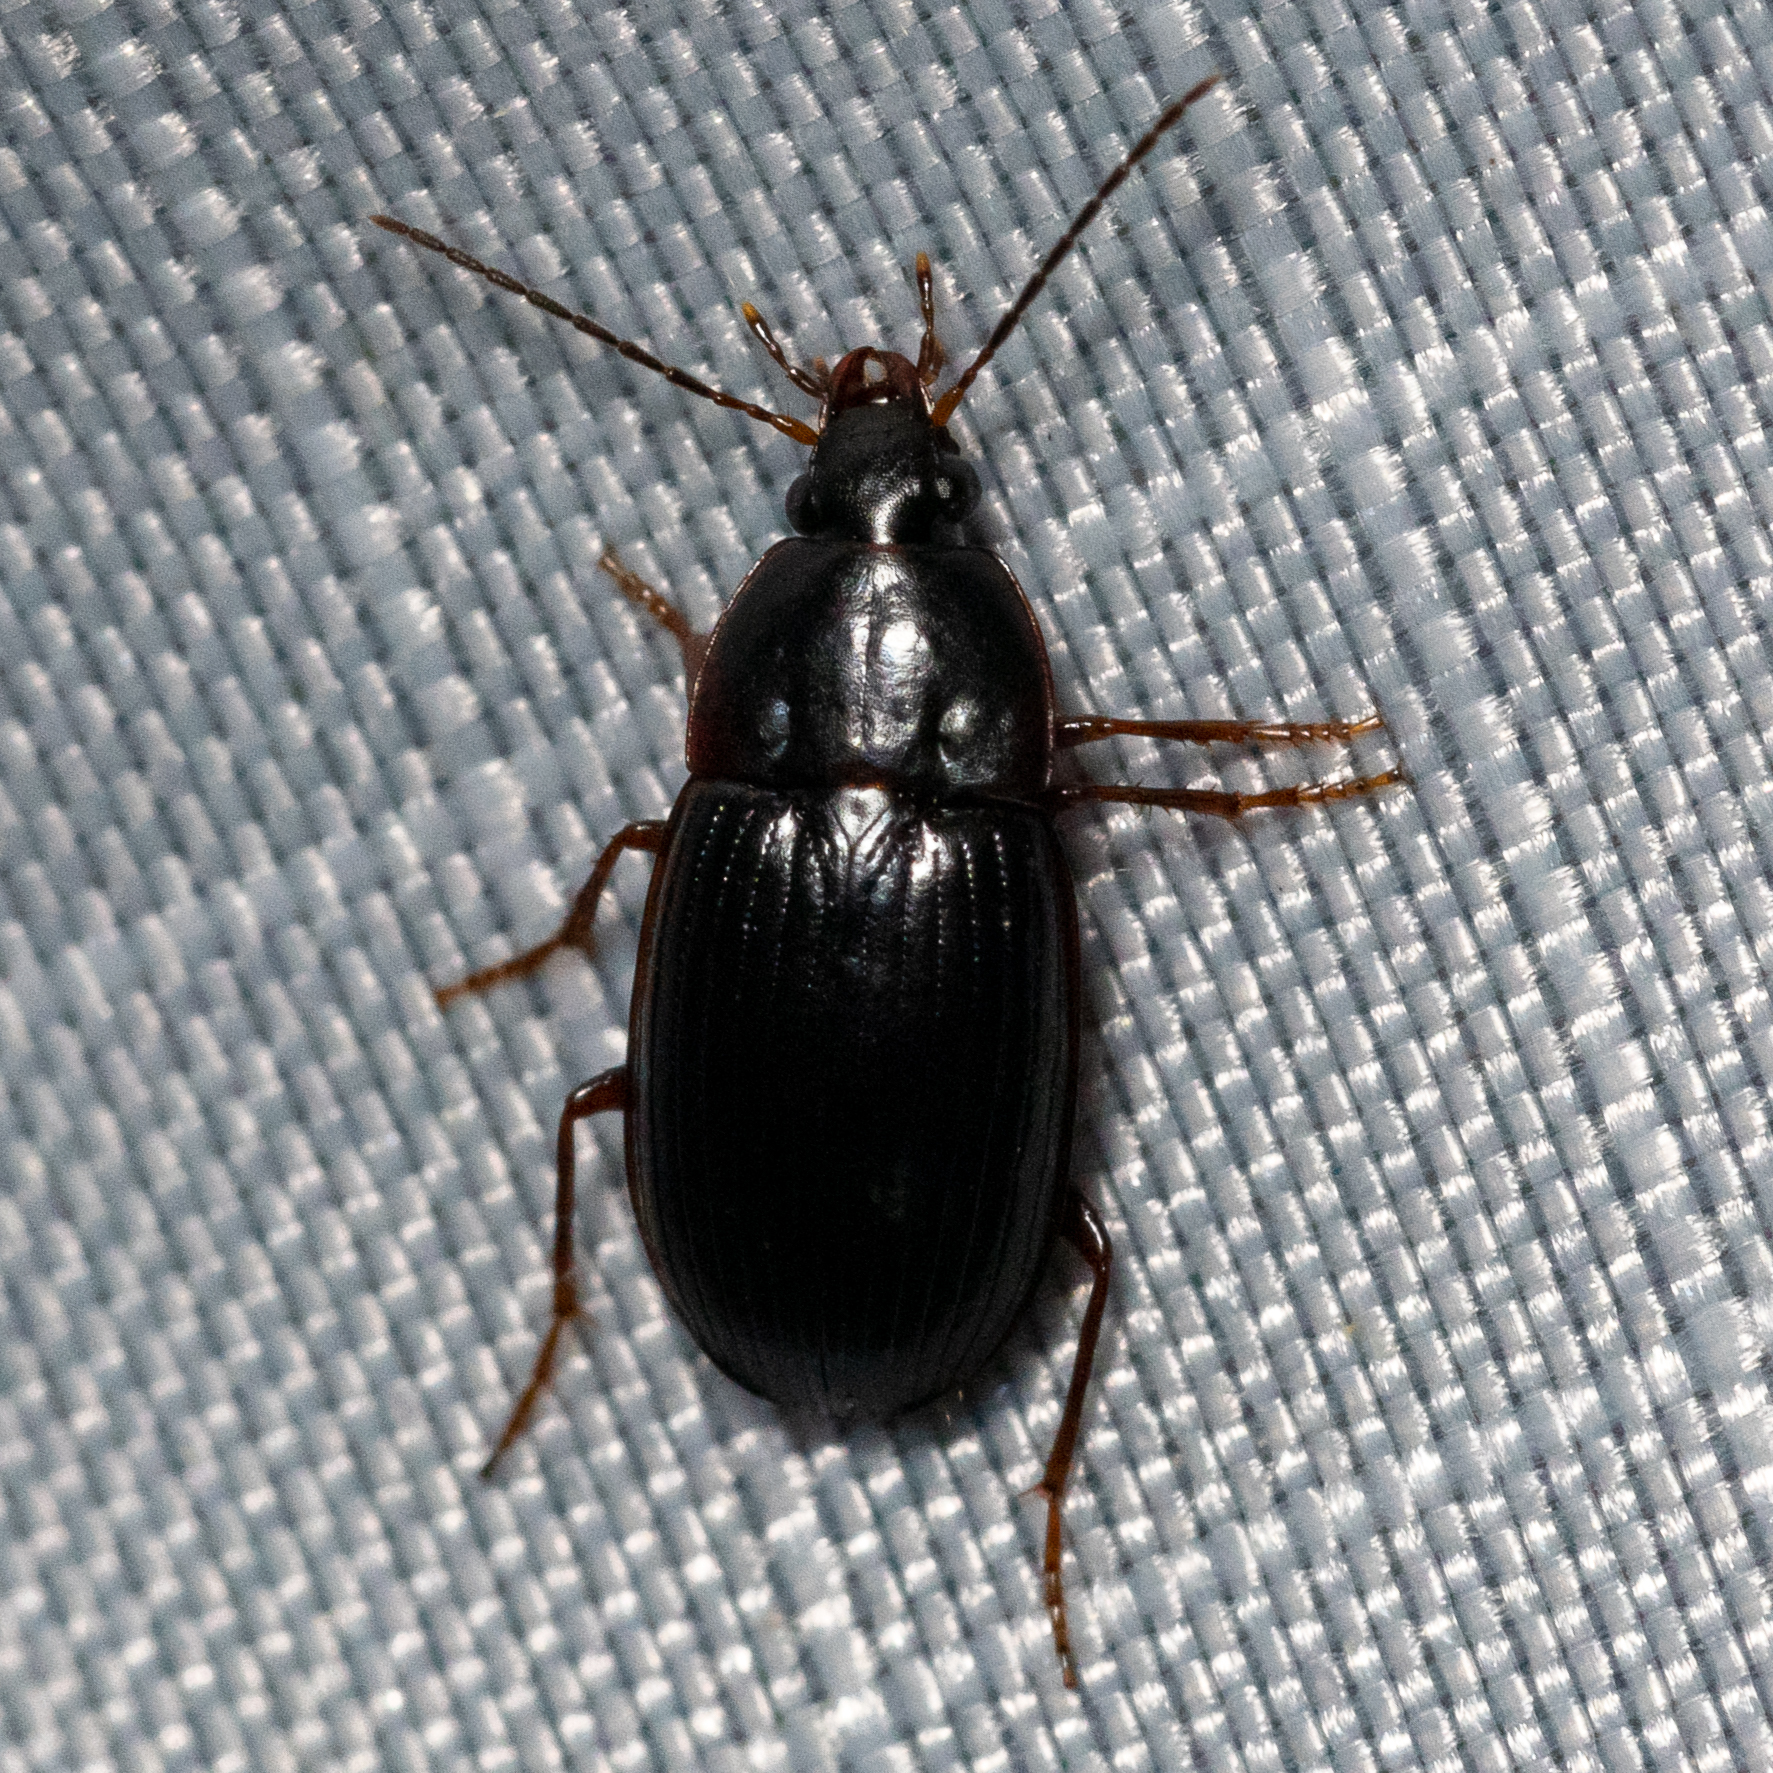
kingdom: Animalia
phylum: Arthropoda
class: Insecta
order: Coleoptera
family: Carabidae
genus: Anatrichis
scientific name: Anatrichis minuta
